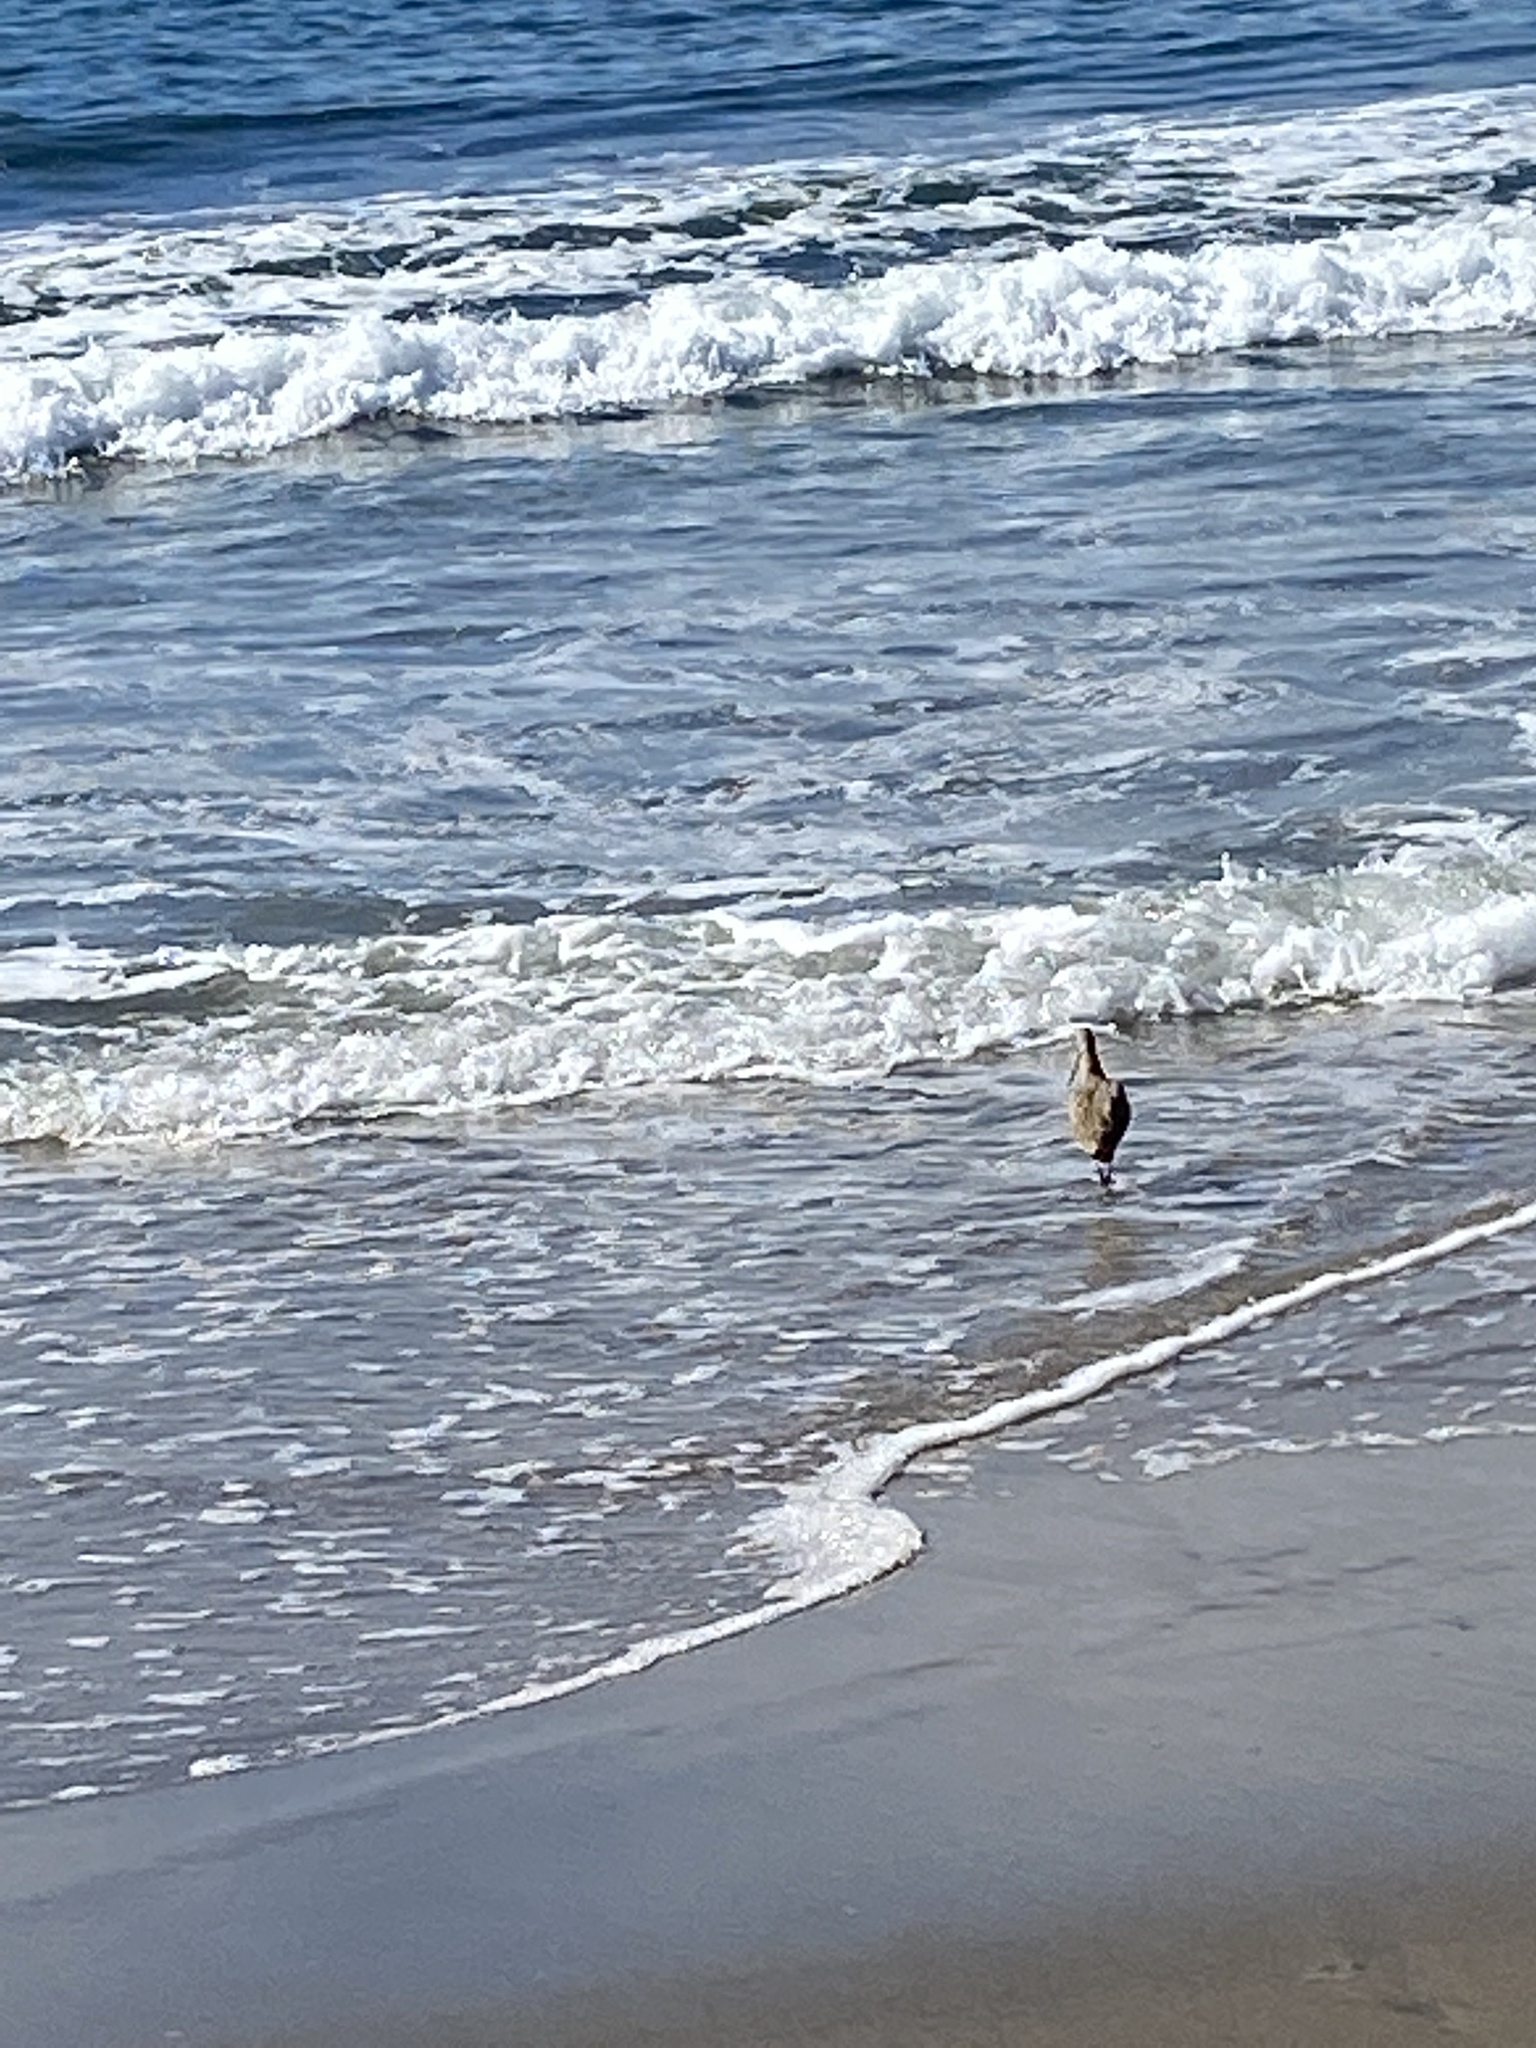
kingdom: Animalia
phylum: Chordata
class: Aves
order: Charadriiformes
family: Scolopacidae
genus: Limosa
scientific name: Limosa fedoa
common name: Marbled godwit
